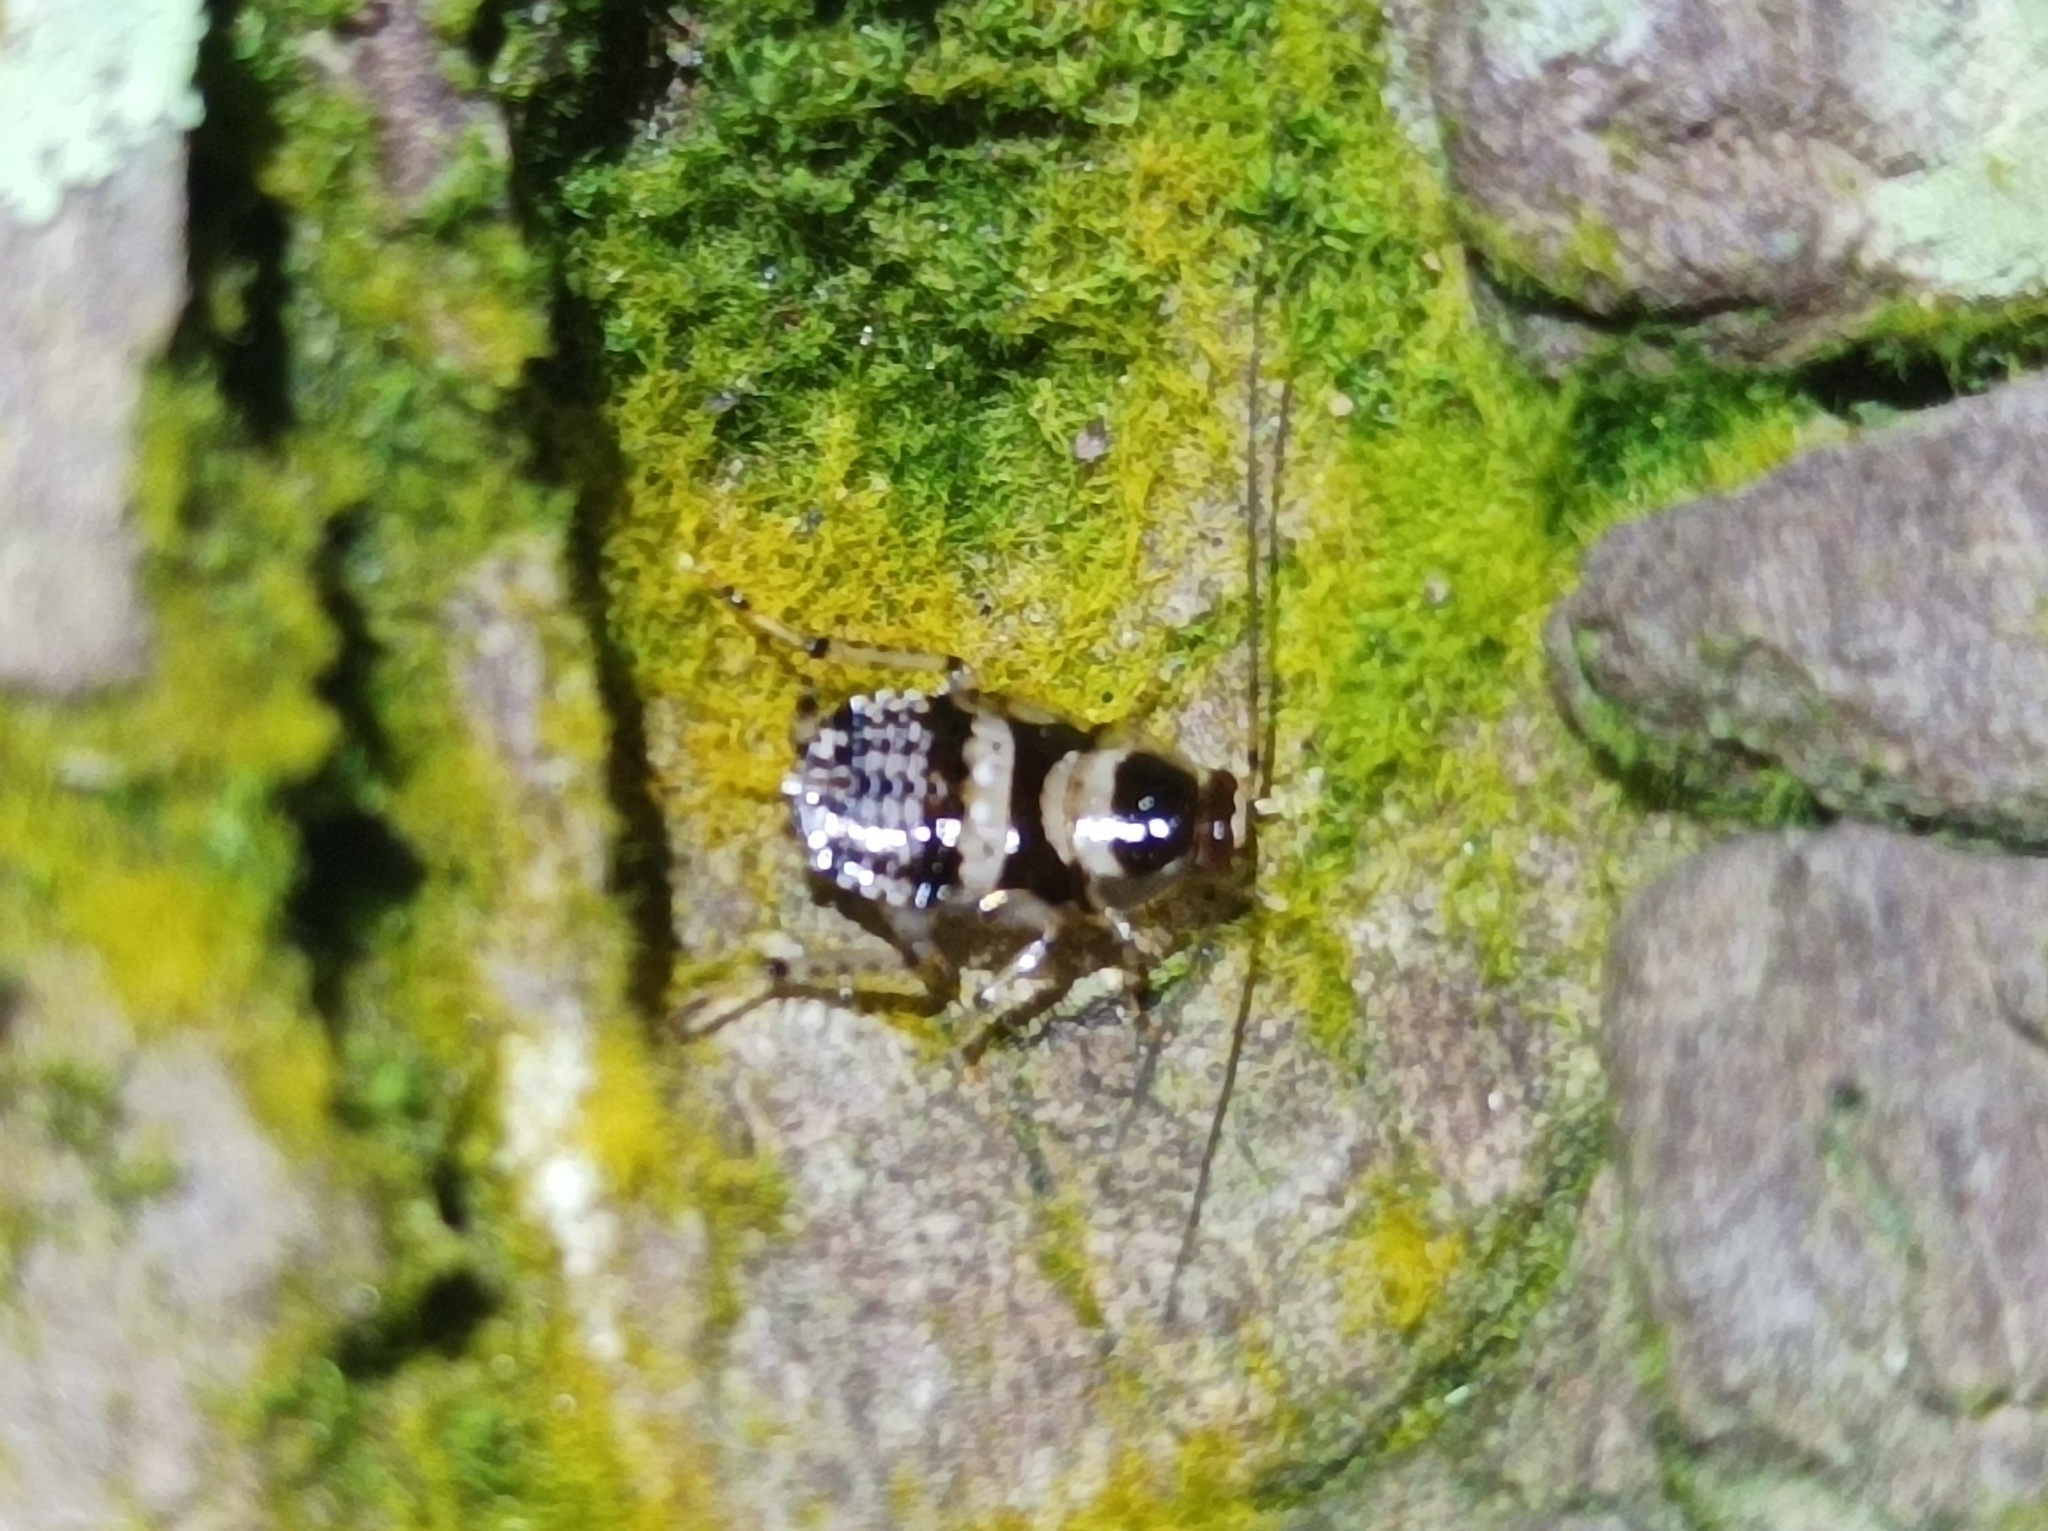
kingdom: Animalia
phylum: Arthropoda
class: Insecta
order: Blattodea
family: Ectobiidae
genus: Balta
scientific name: Balta notulata
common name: Cockroach
